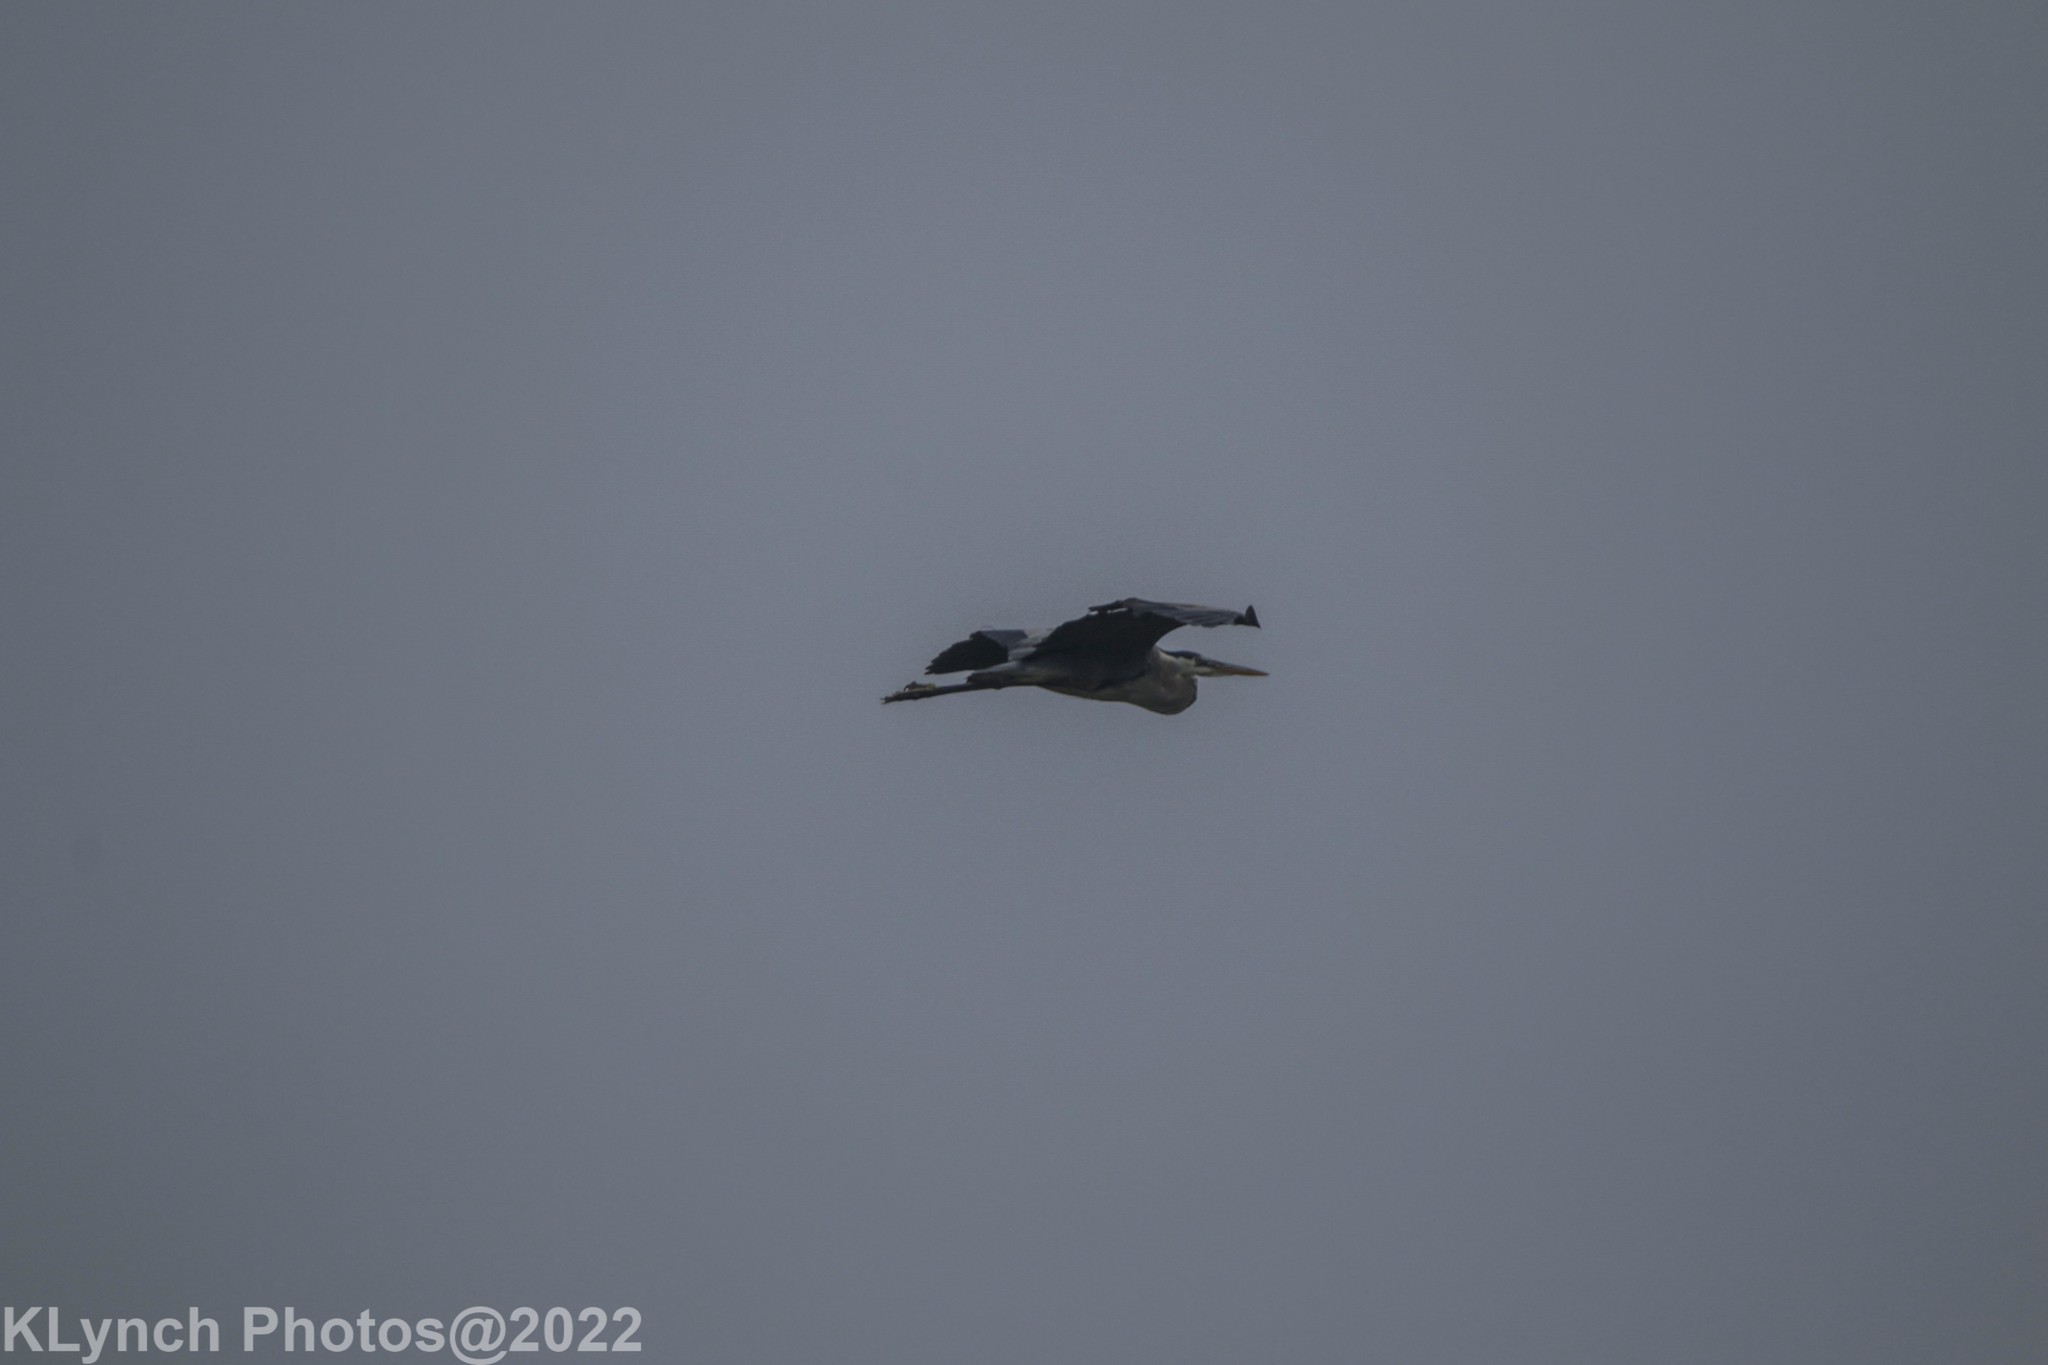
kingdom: Animalia
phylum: Chordata
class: Aves
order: Pelecaniformes
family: Ardeidae
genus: Ardea
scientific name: Ardea herodias
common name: Great blue heron
